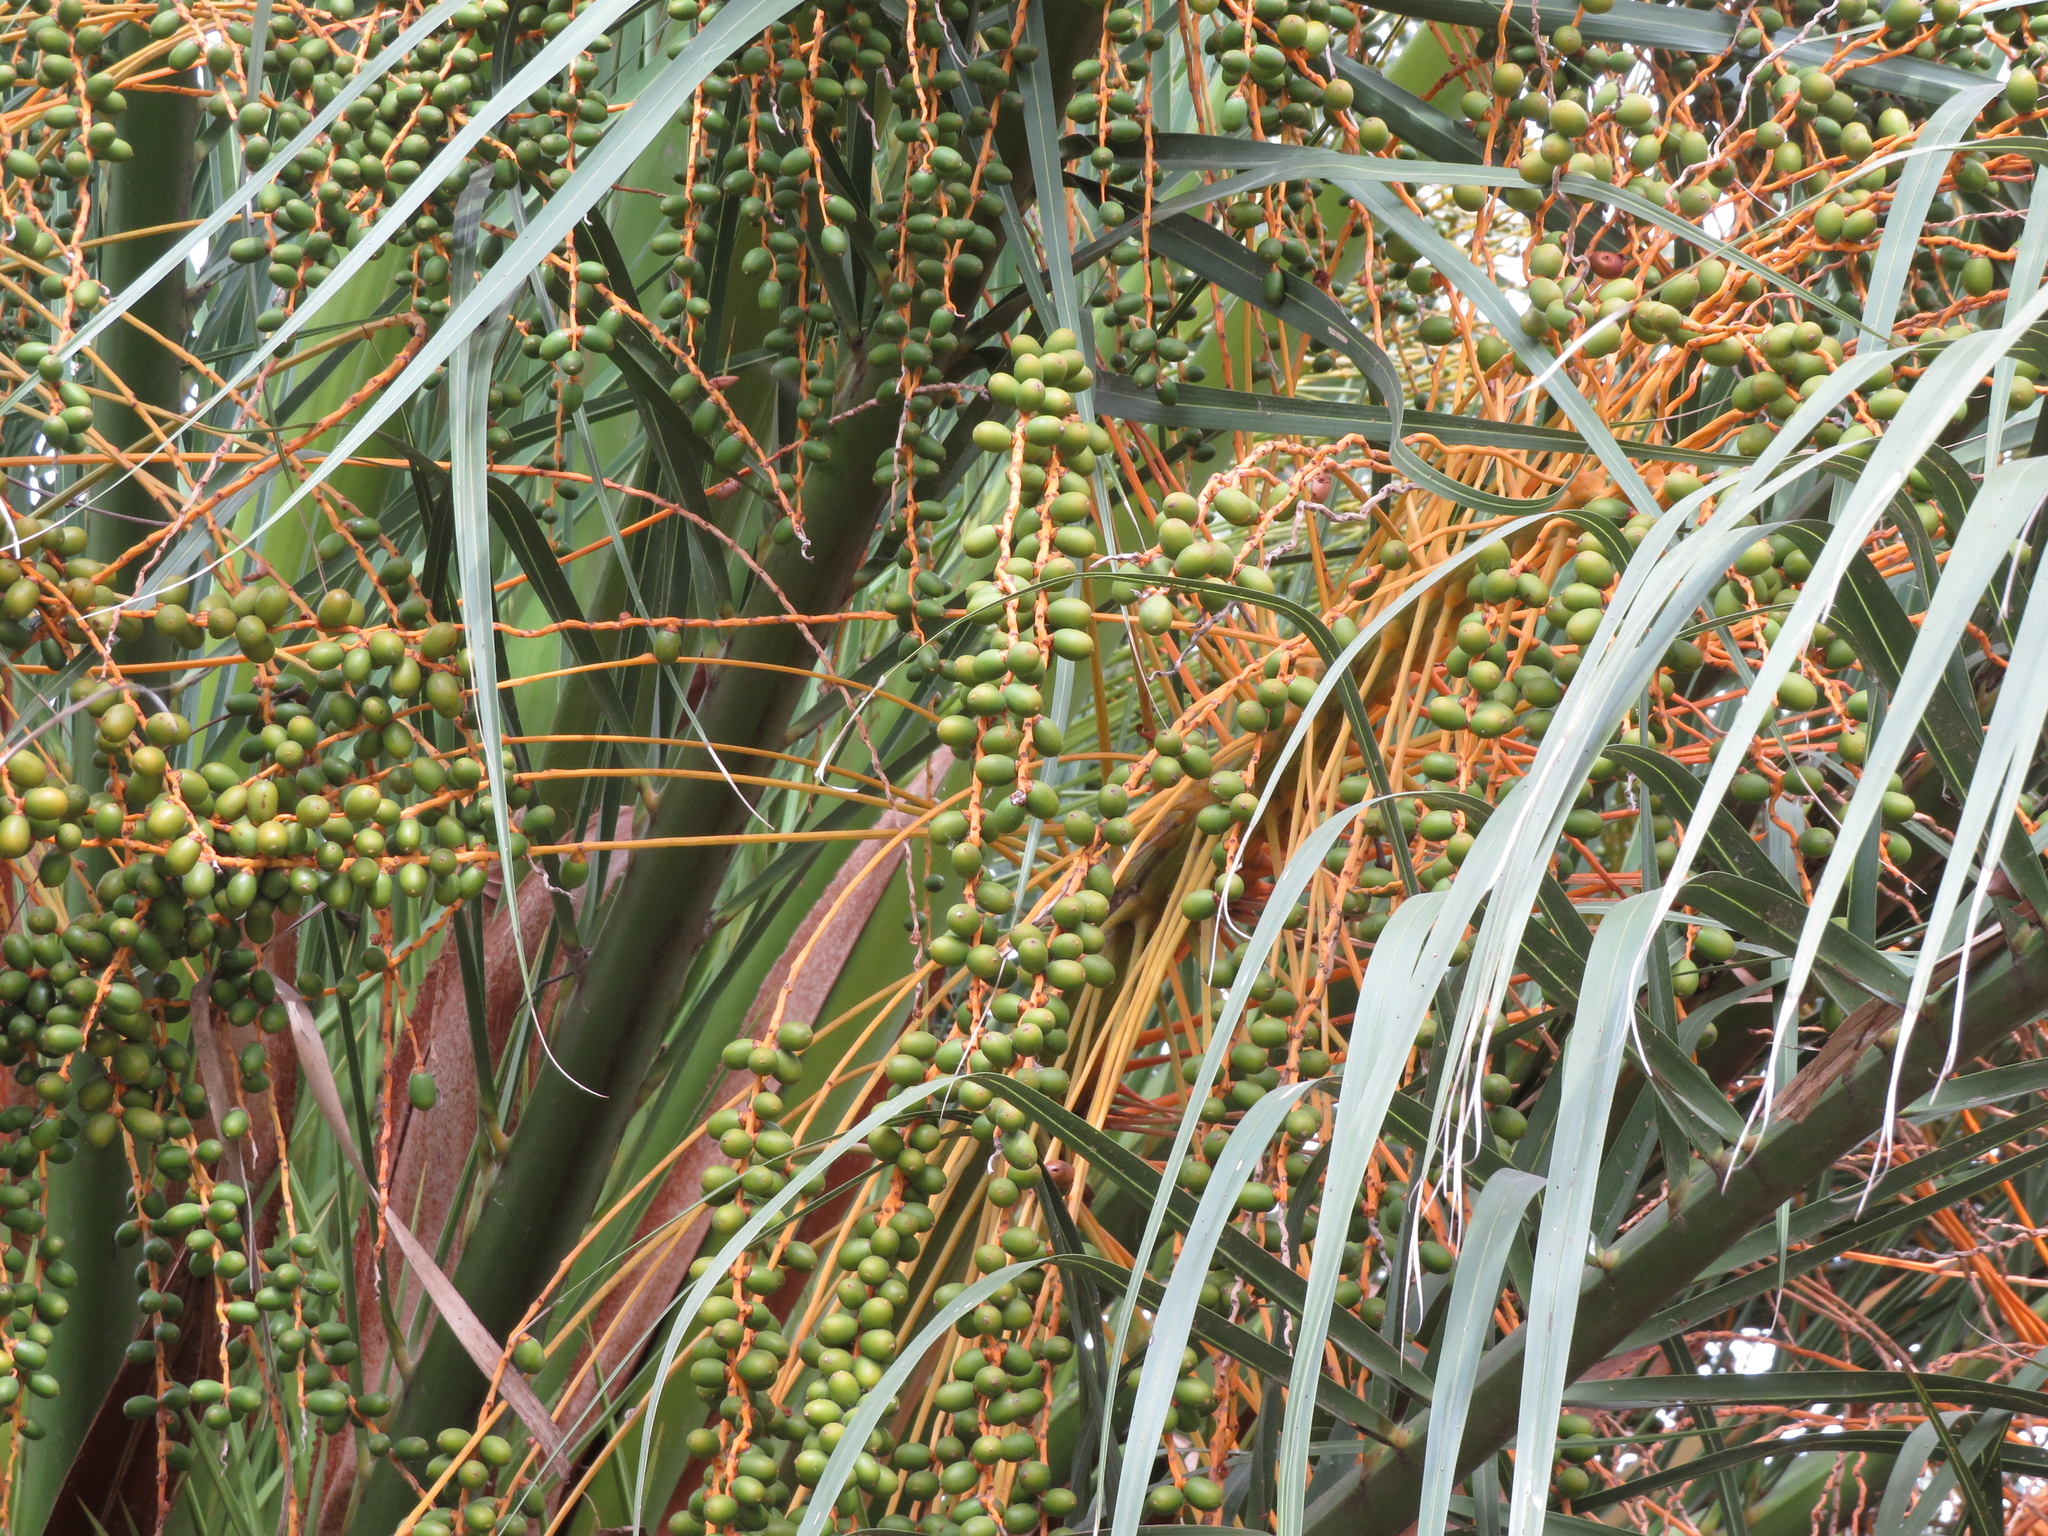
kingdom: Plantae
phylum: Tracheophyta
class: Liliopsida
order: Arecales
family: Arecaceae
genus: Phoenix
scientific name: Phoenix canariensis
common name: Canary island date palm
